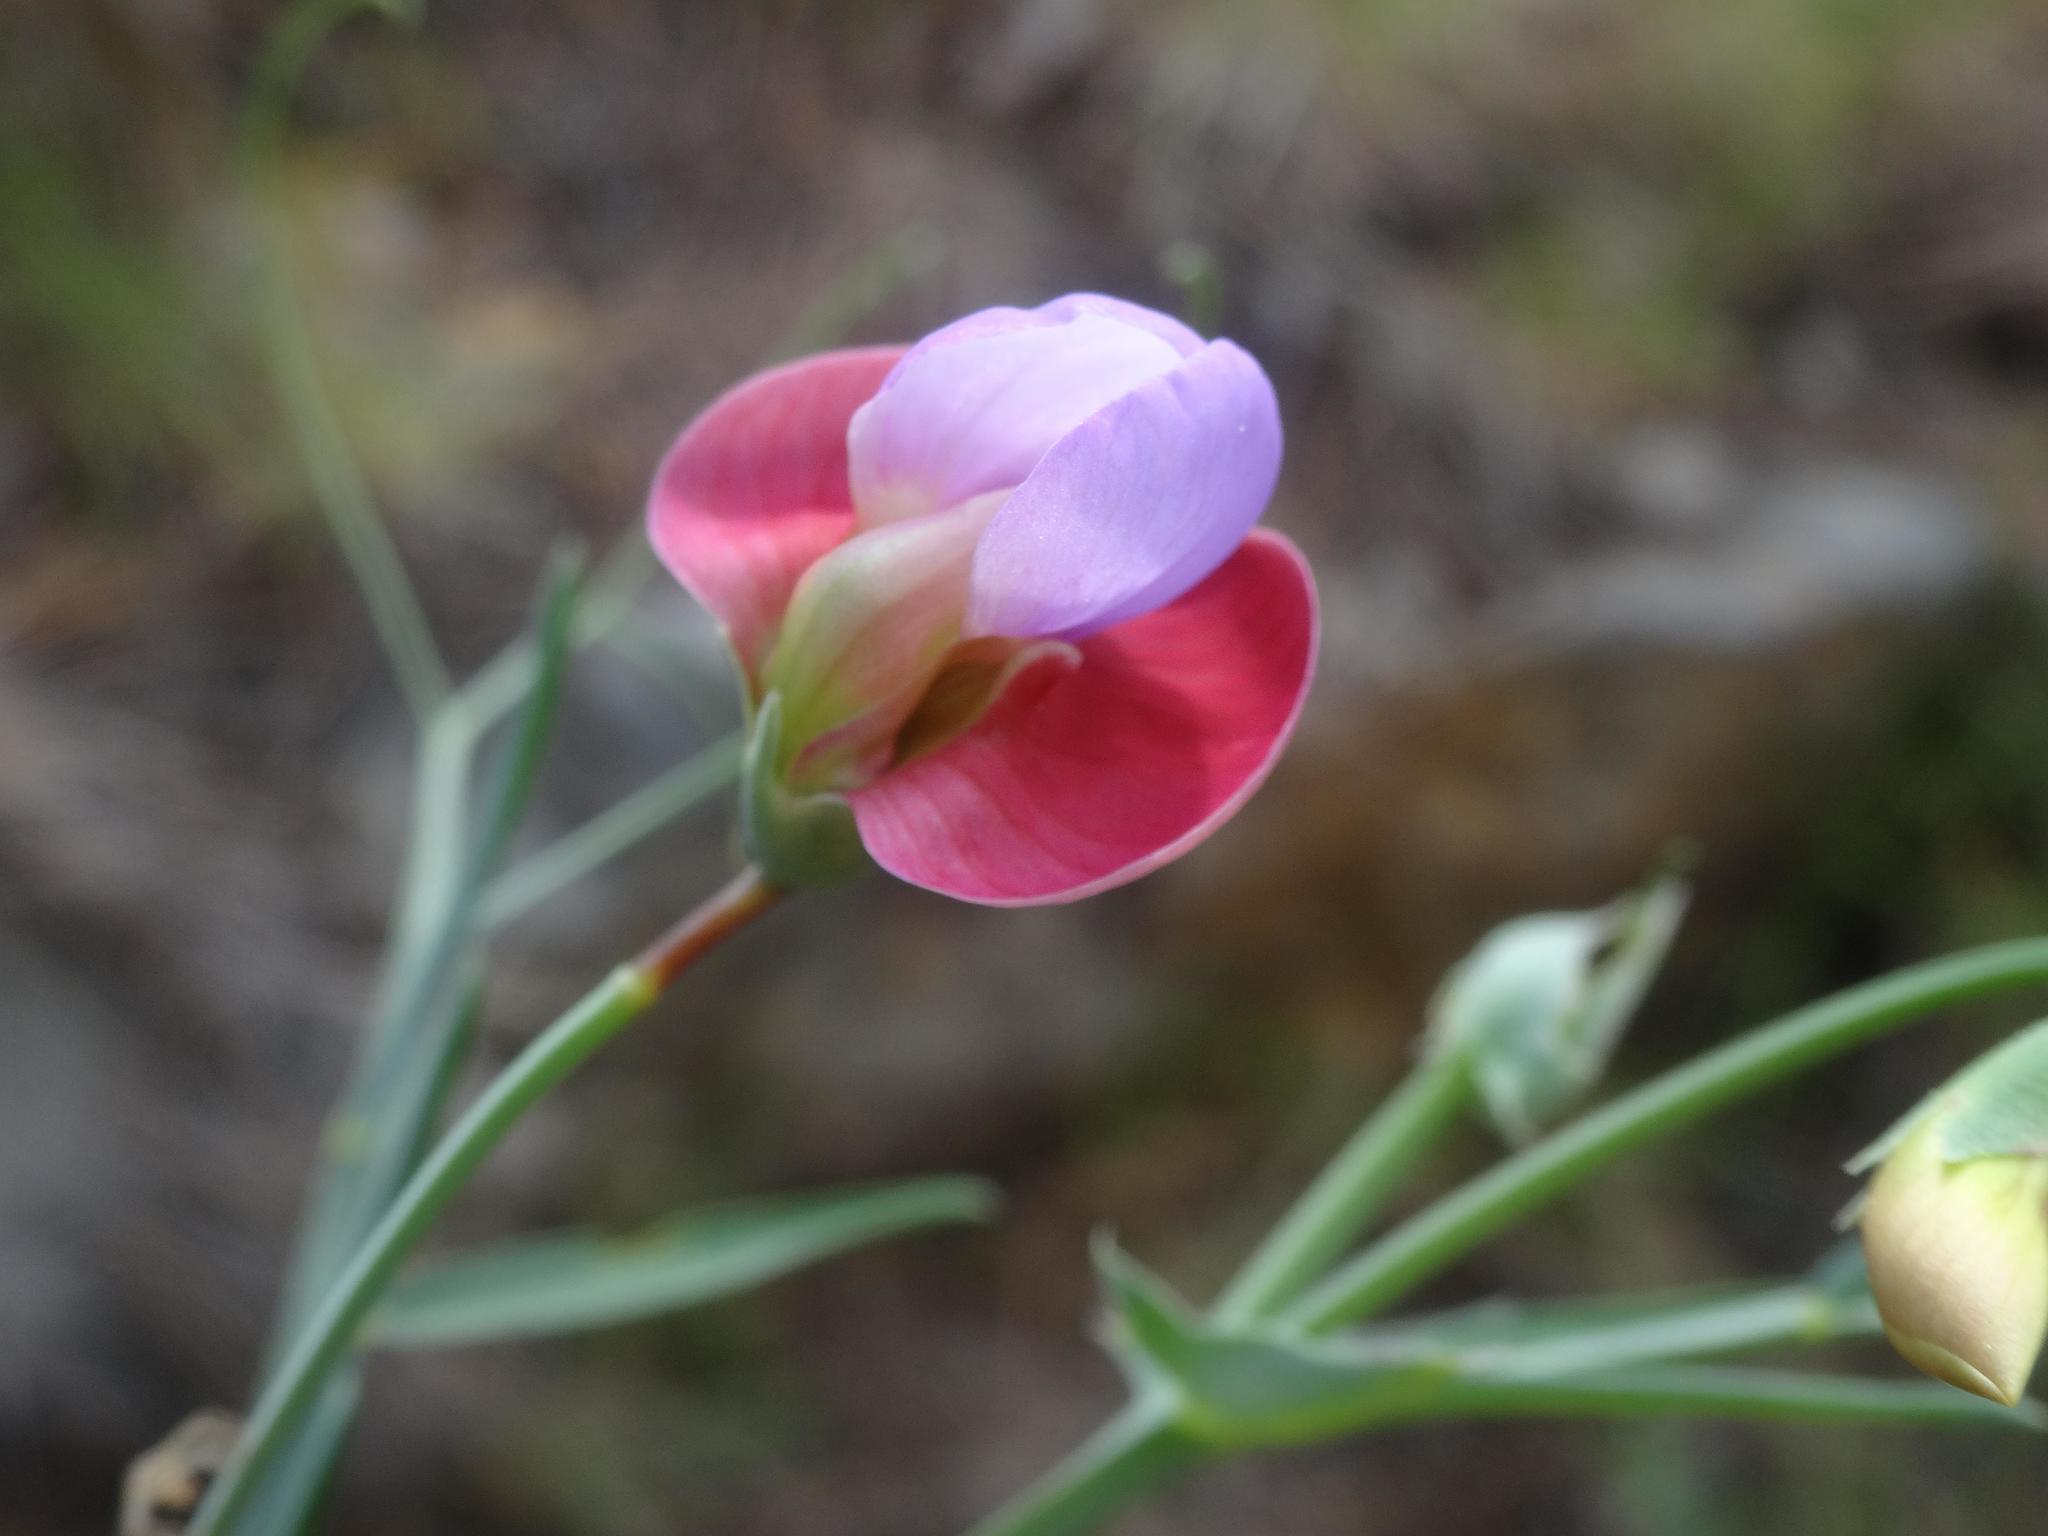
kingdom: Plantae
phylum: Tracheophyta
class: Magnoliopsida
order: Fabales
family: Fabaceae
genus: Lathyrus
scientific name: Lathyrus clymenum
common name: Spanish vetchling
